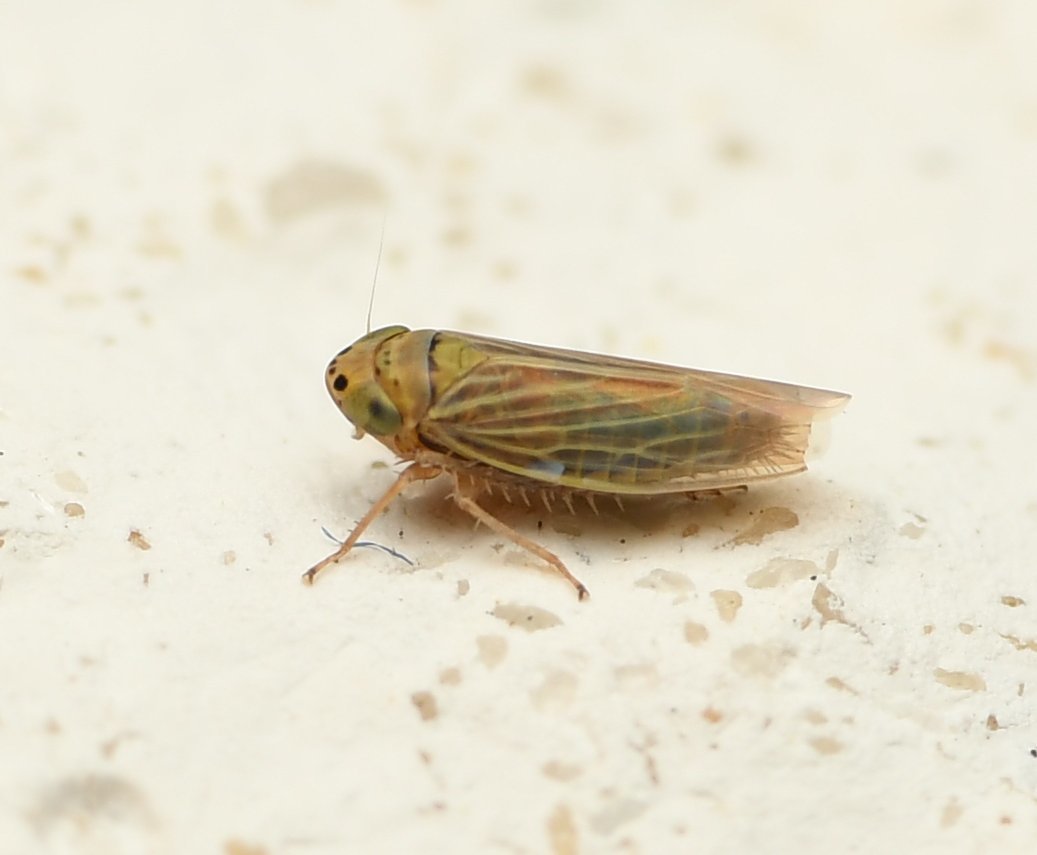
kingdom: Animalia
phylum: Arthropoda
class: Insecta
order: Hemiptera
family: Cicadellidae
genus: Graminella
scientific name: Graminella cognita
